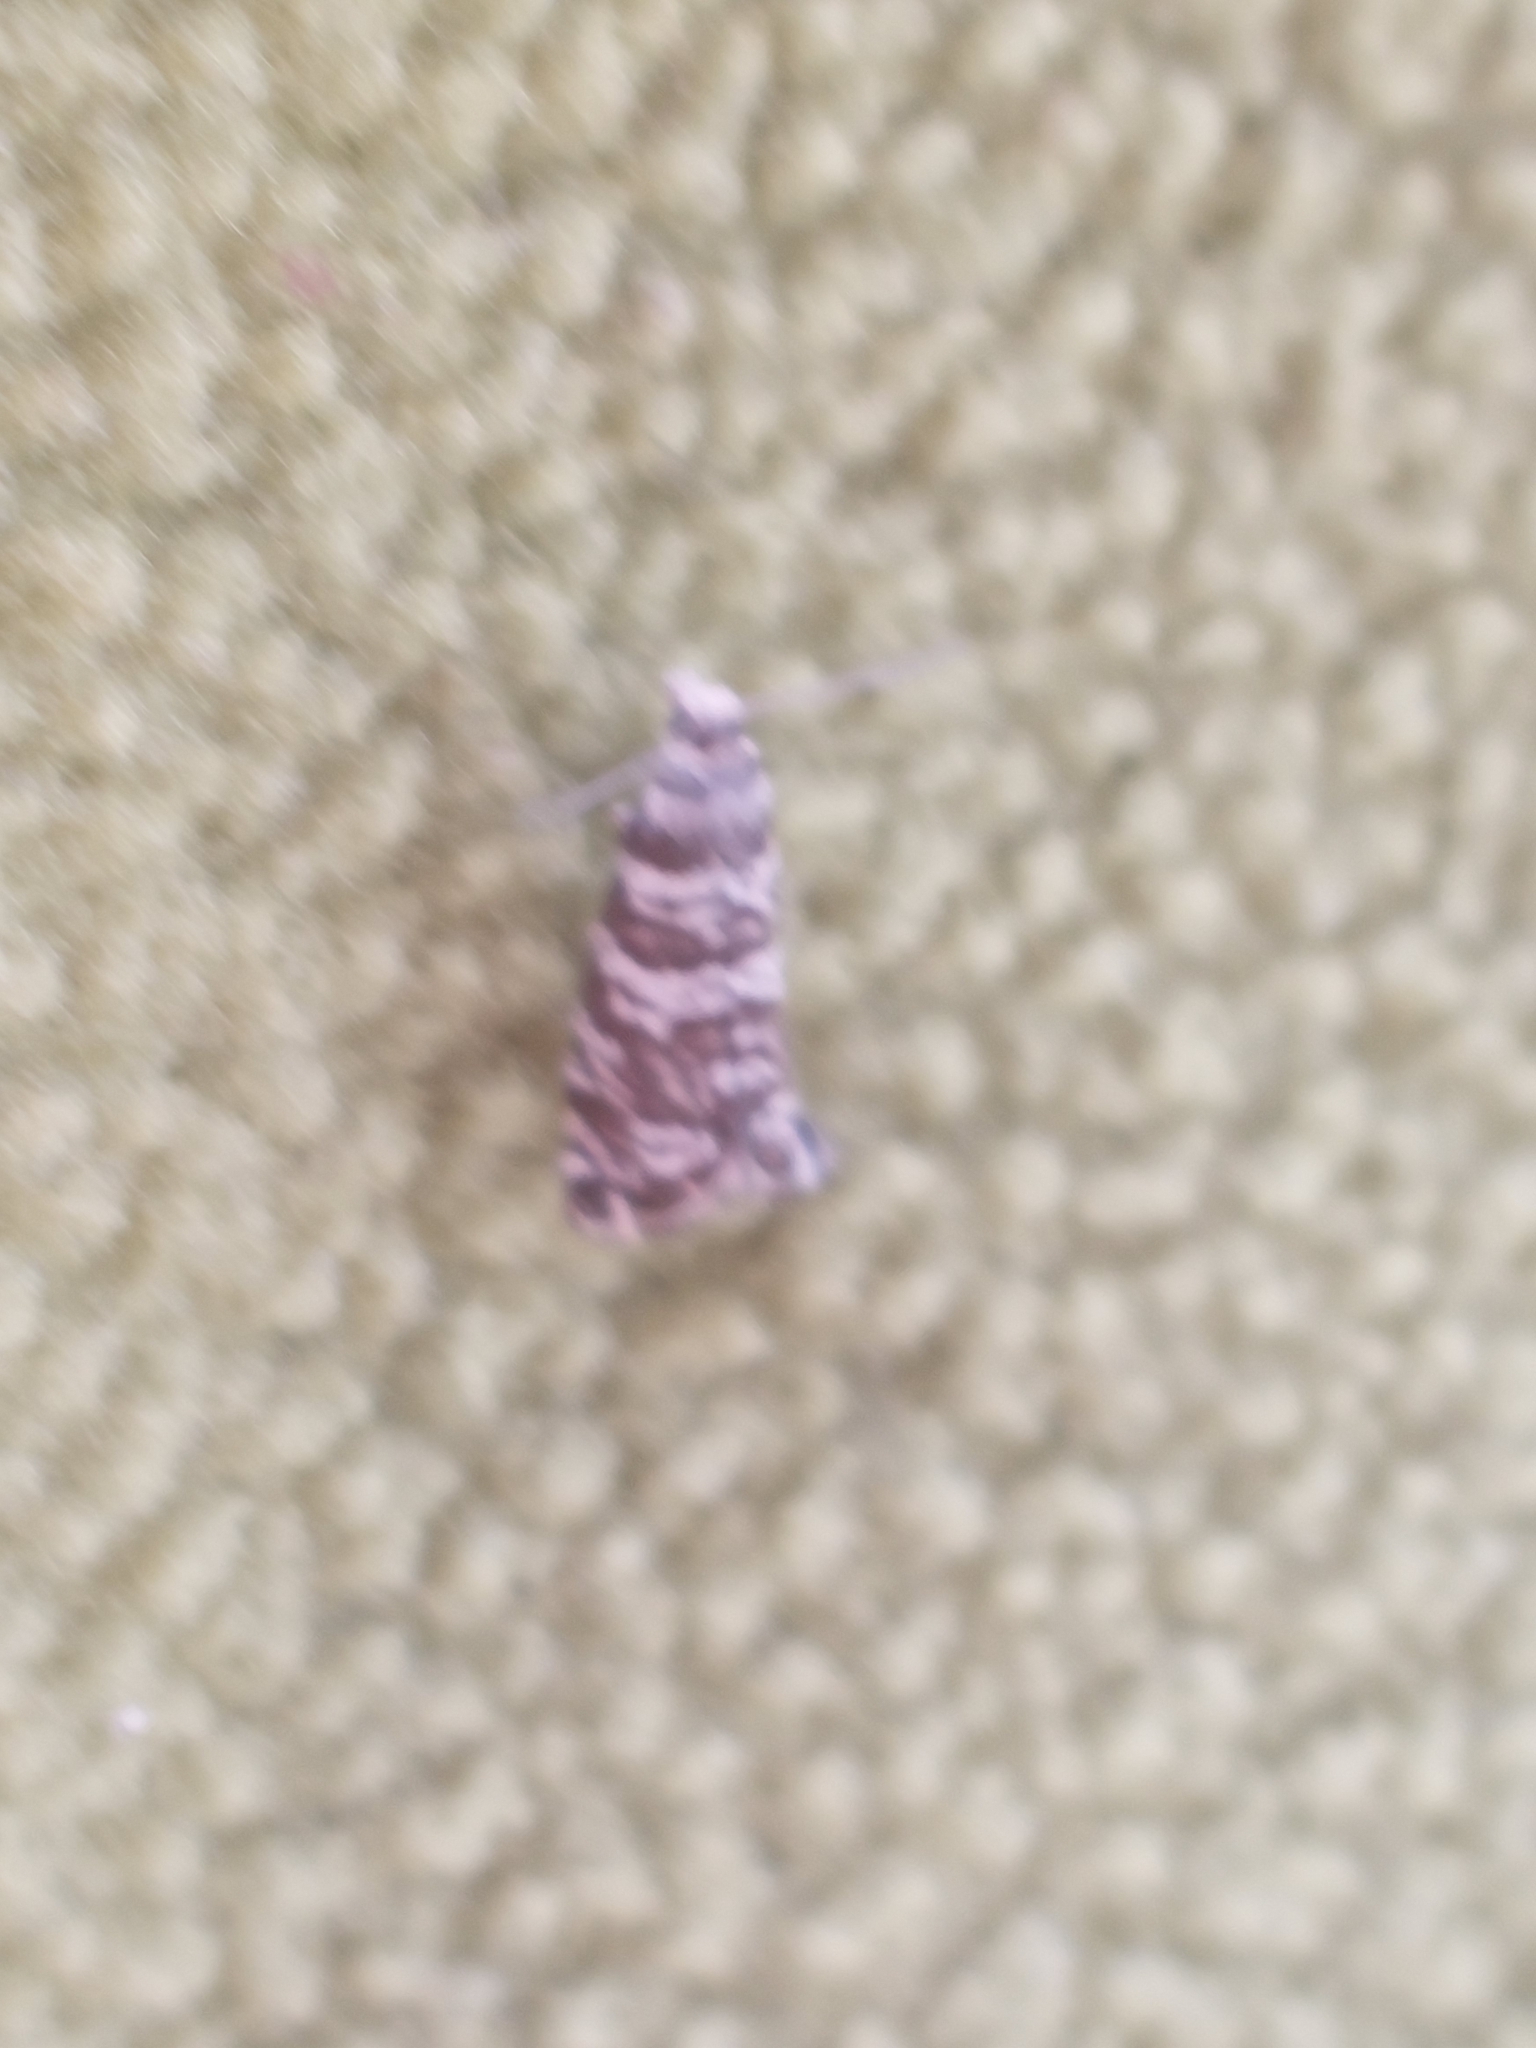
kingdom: Animalia
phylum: Arthropoda
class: Insecta
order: Lepidoptera
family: Tortricidae
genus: Epinotia
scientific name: Epinotia tedella
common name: Common spruce bell
